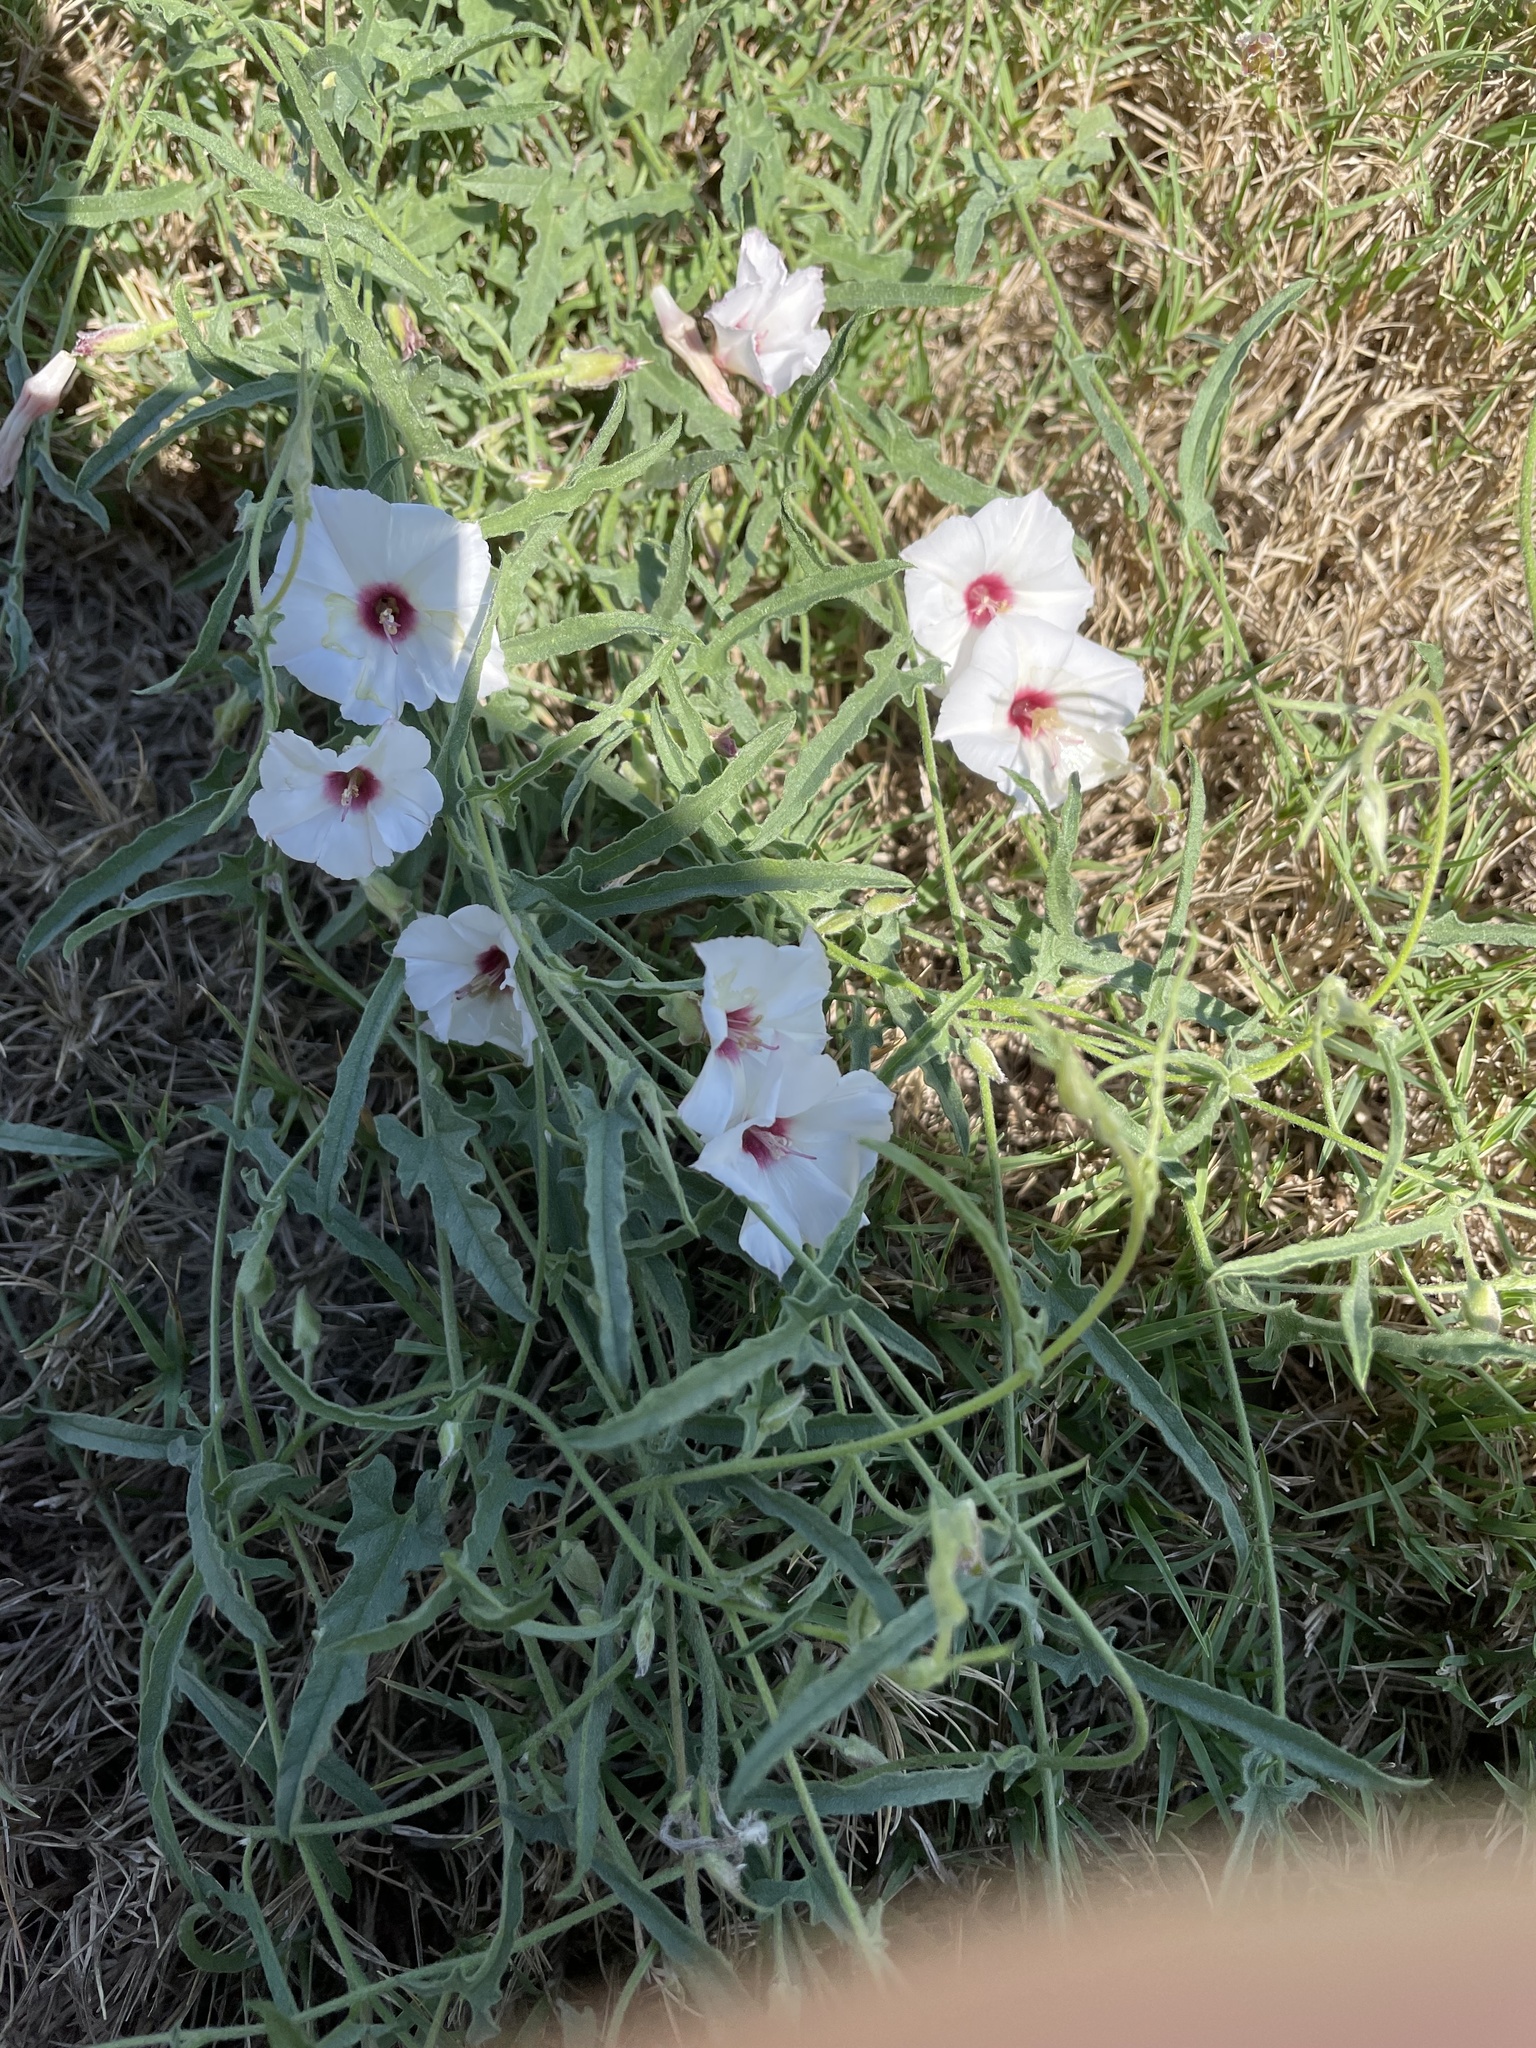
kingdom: Plantae
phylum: Tracheophyta
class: Magnoliopsida
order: Solanales
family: Convolvulaceae
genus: Convolvulus
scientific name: Convolvulus equitans
